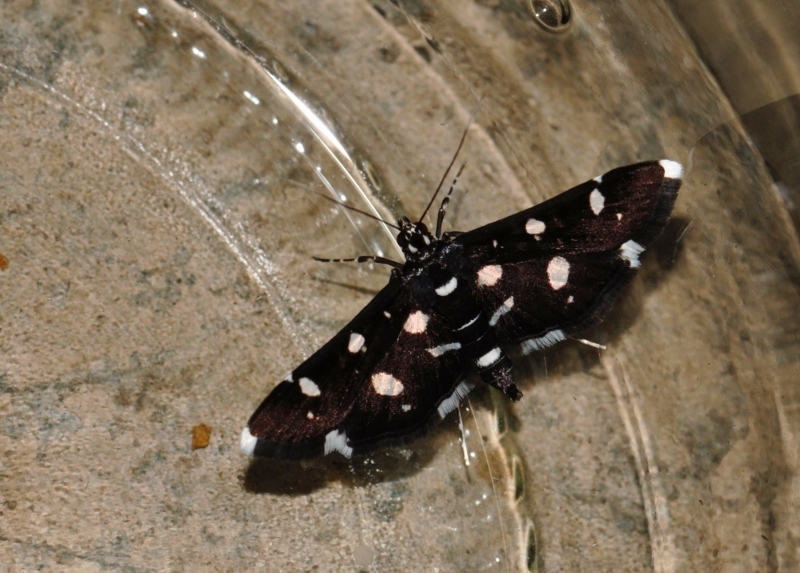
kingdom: Animalia
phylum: Arthropoda
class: Insecta
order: Lepidoptera
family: Crambidae
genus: Bocchoris
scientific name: Bocchoris inspersalis
